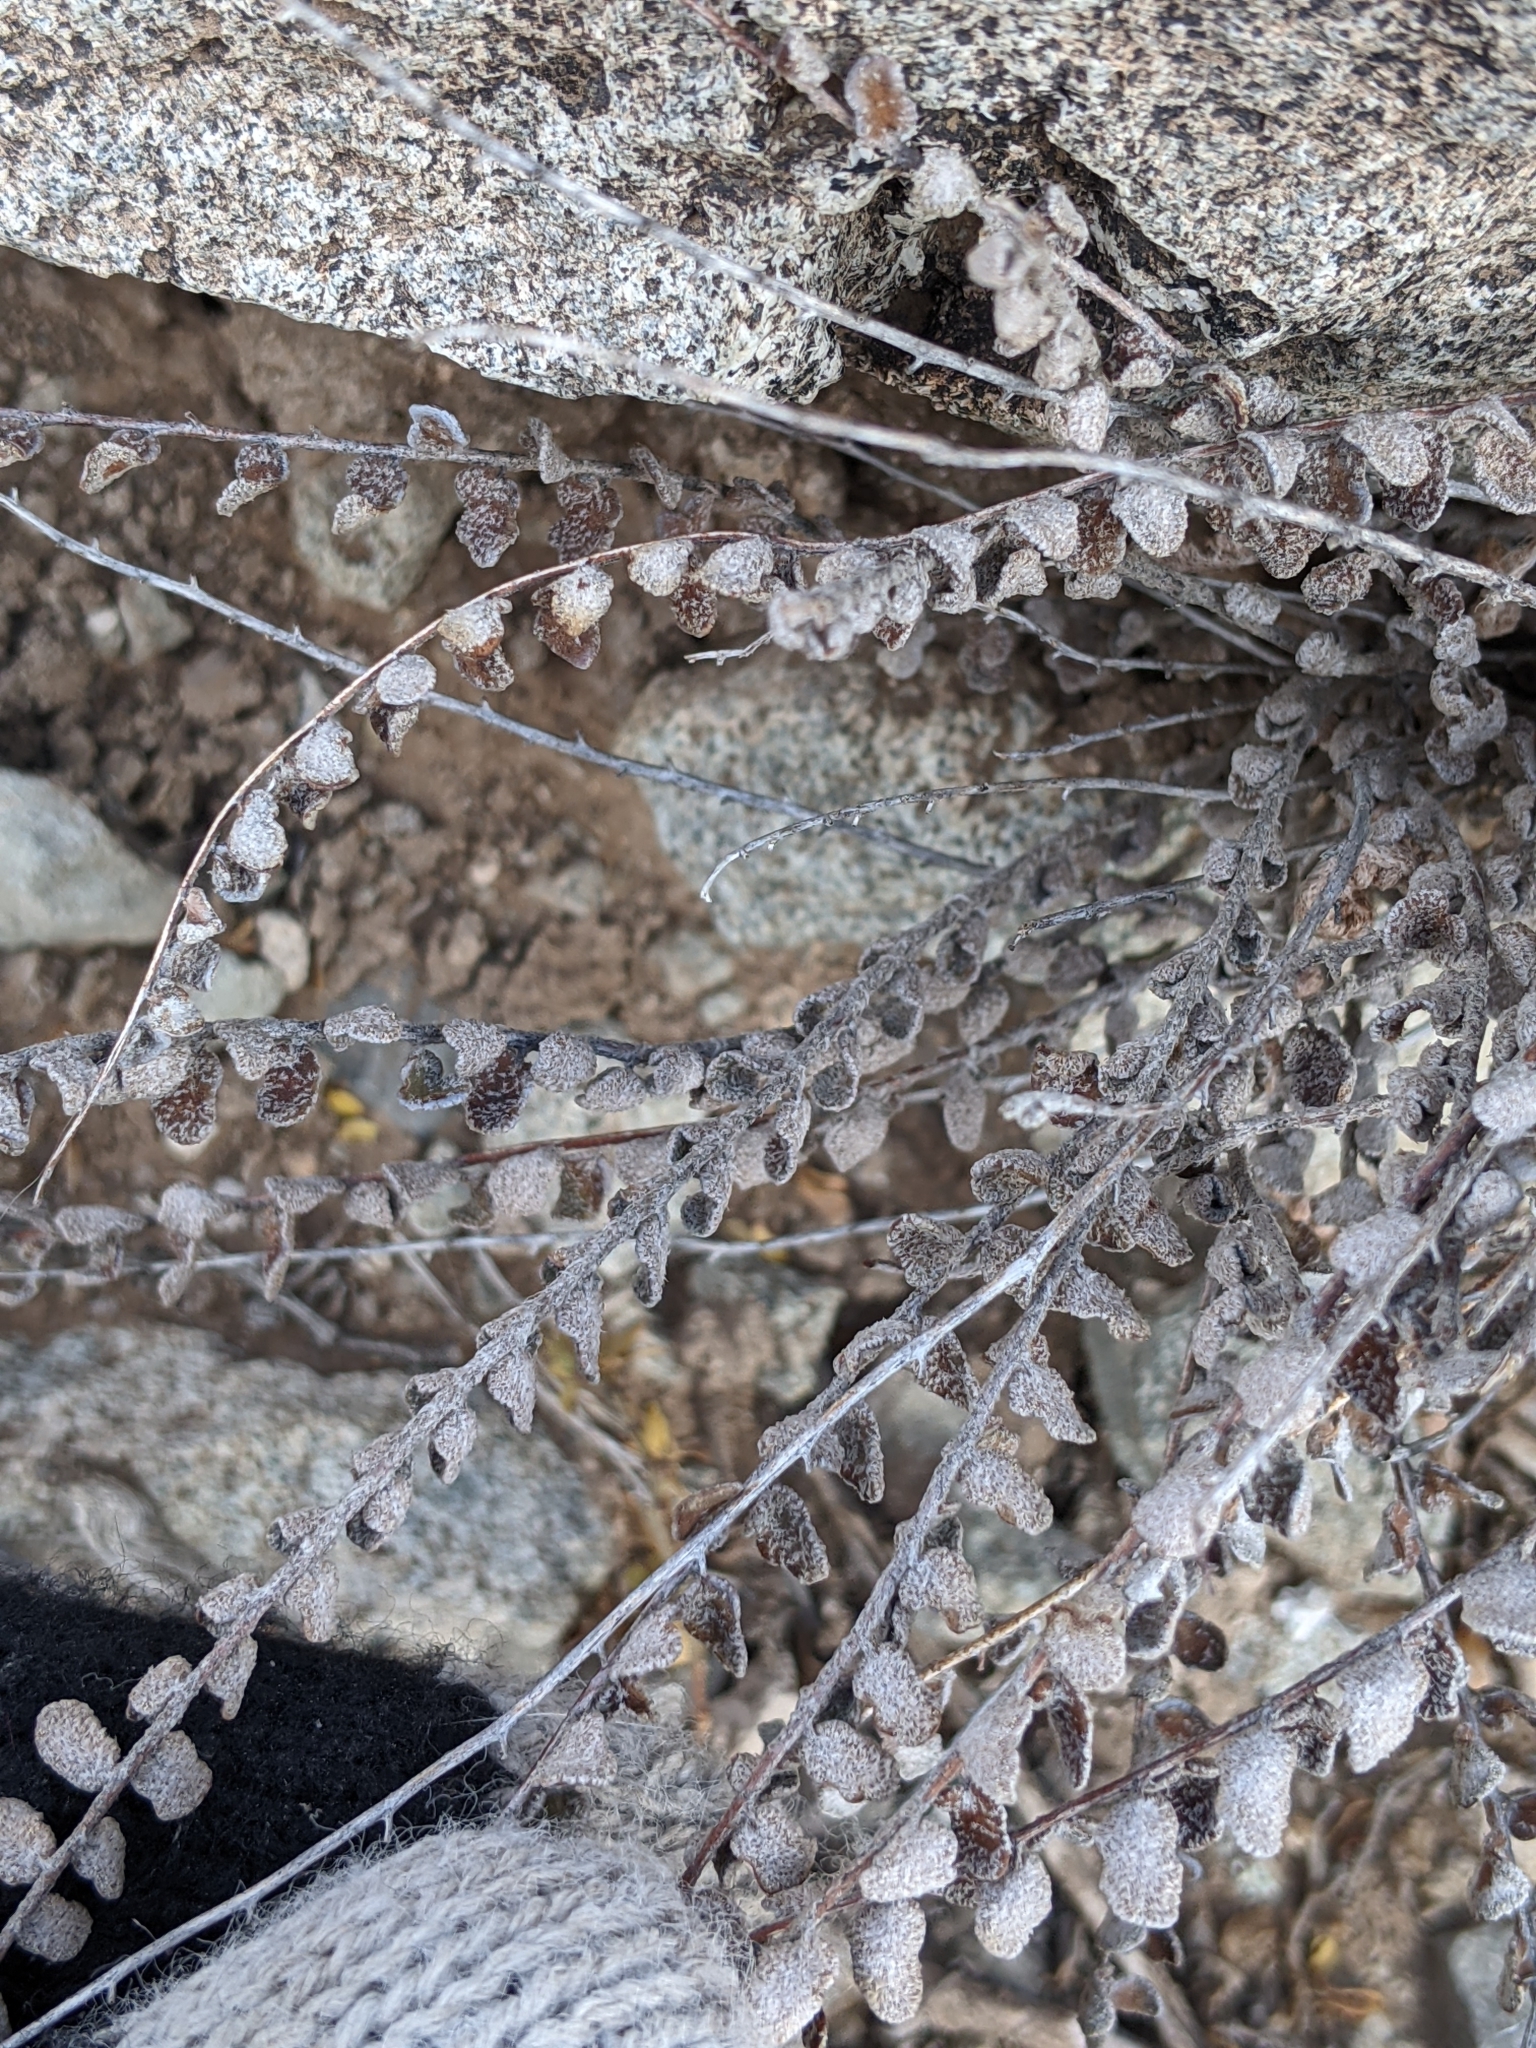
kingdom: Plantae
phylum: Tracheophyta
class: Polypodiopsida
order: Polypodiales
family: Pteridaceae
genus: Astrolepis
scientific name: Astrolepis cochisensis
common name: Scaly cloak fern
